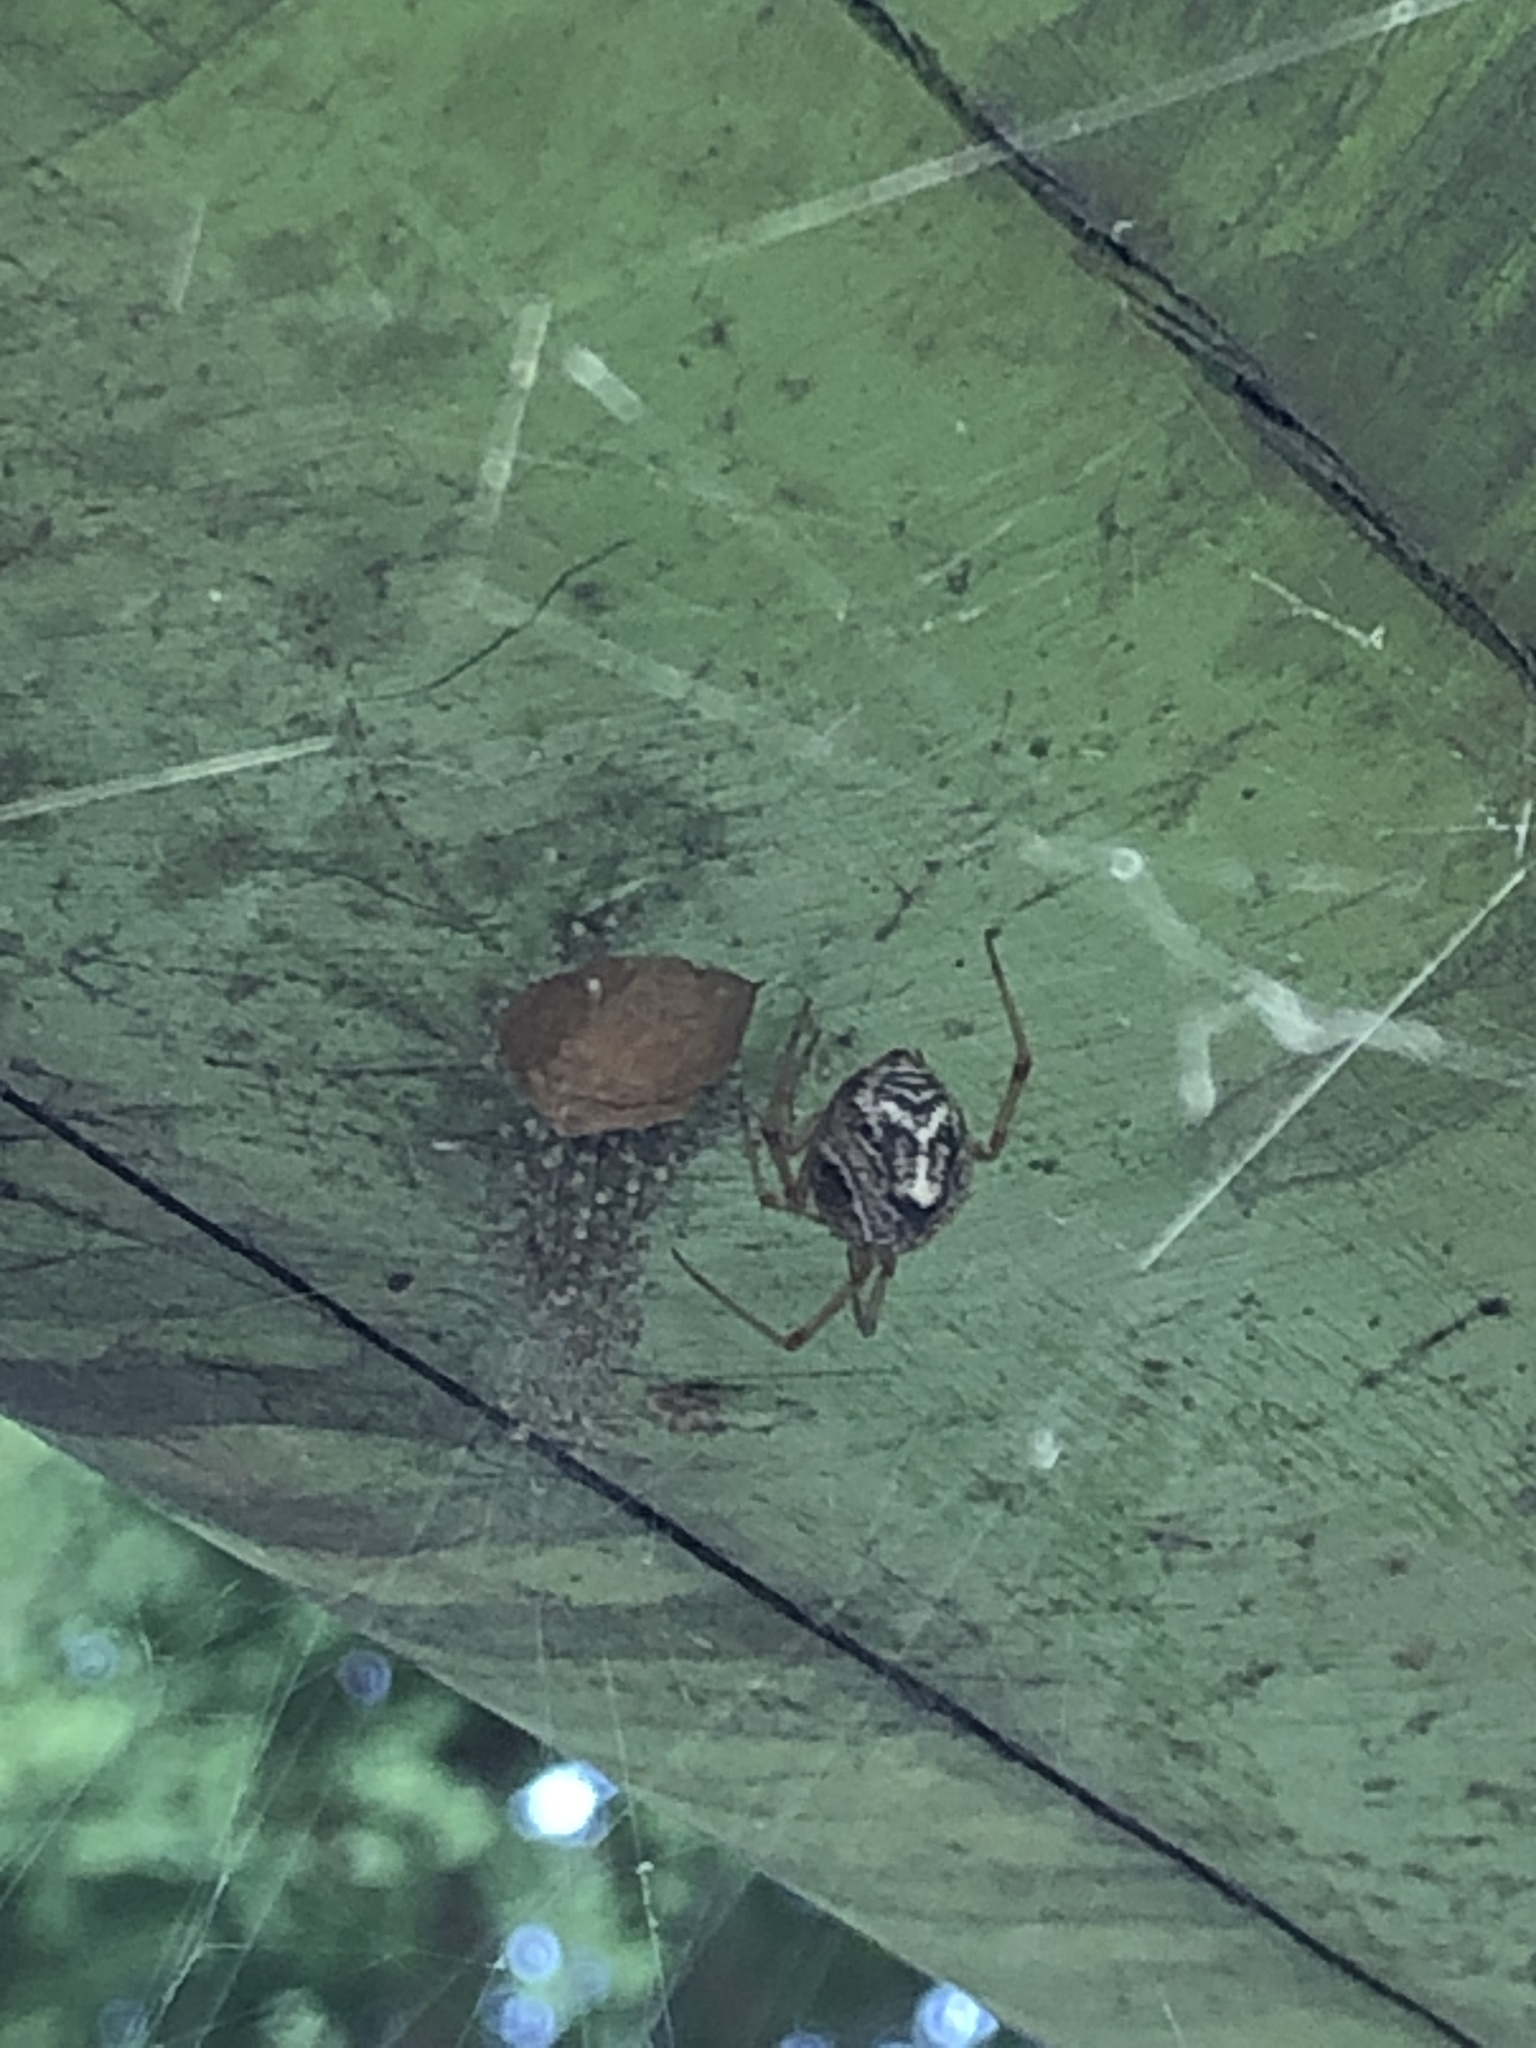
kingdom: Animalia
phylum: Arthropoda
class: Arachnida
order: Araneae
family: Theridiidae
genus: Parasteatoda
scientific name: Parasteatoda tepidariorum
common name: Common house spider
